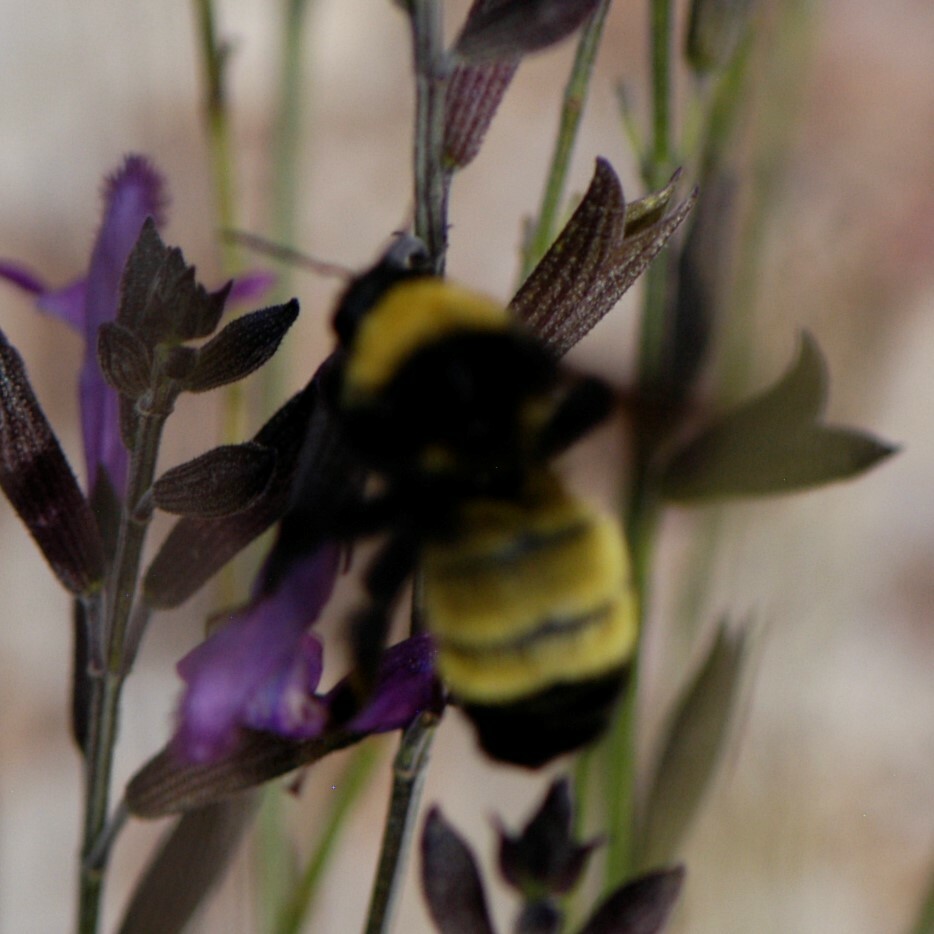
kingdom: Animalia
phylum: Arthropoda
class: Insecta
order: Hymenoptera
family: Apidae
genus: Bombus
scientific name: Bombus pensylvanicus
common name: Bumble bee
